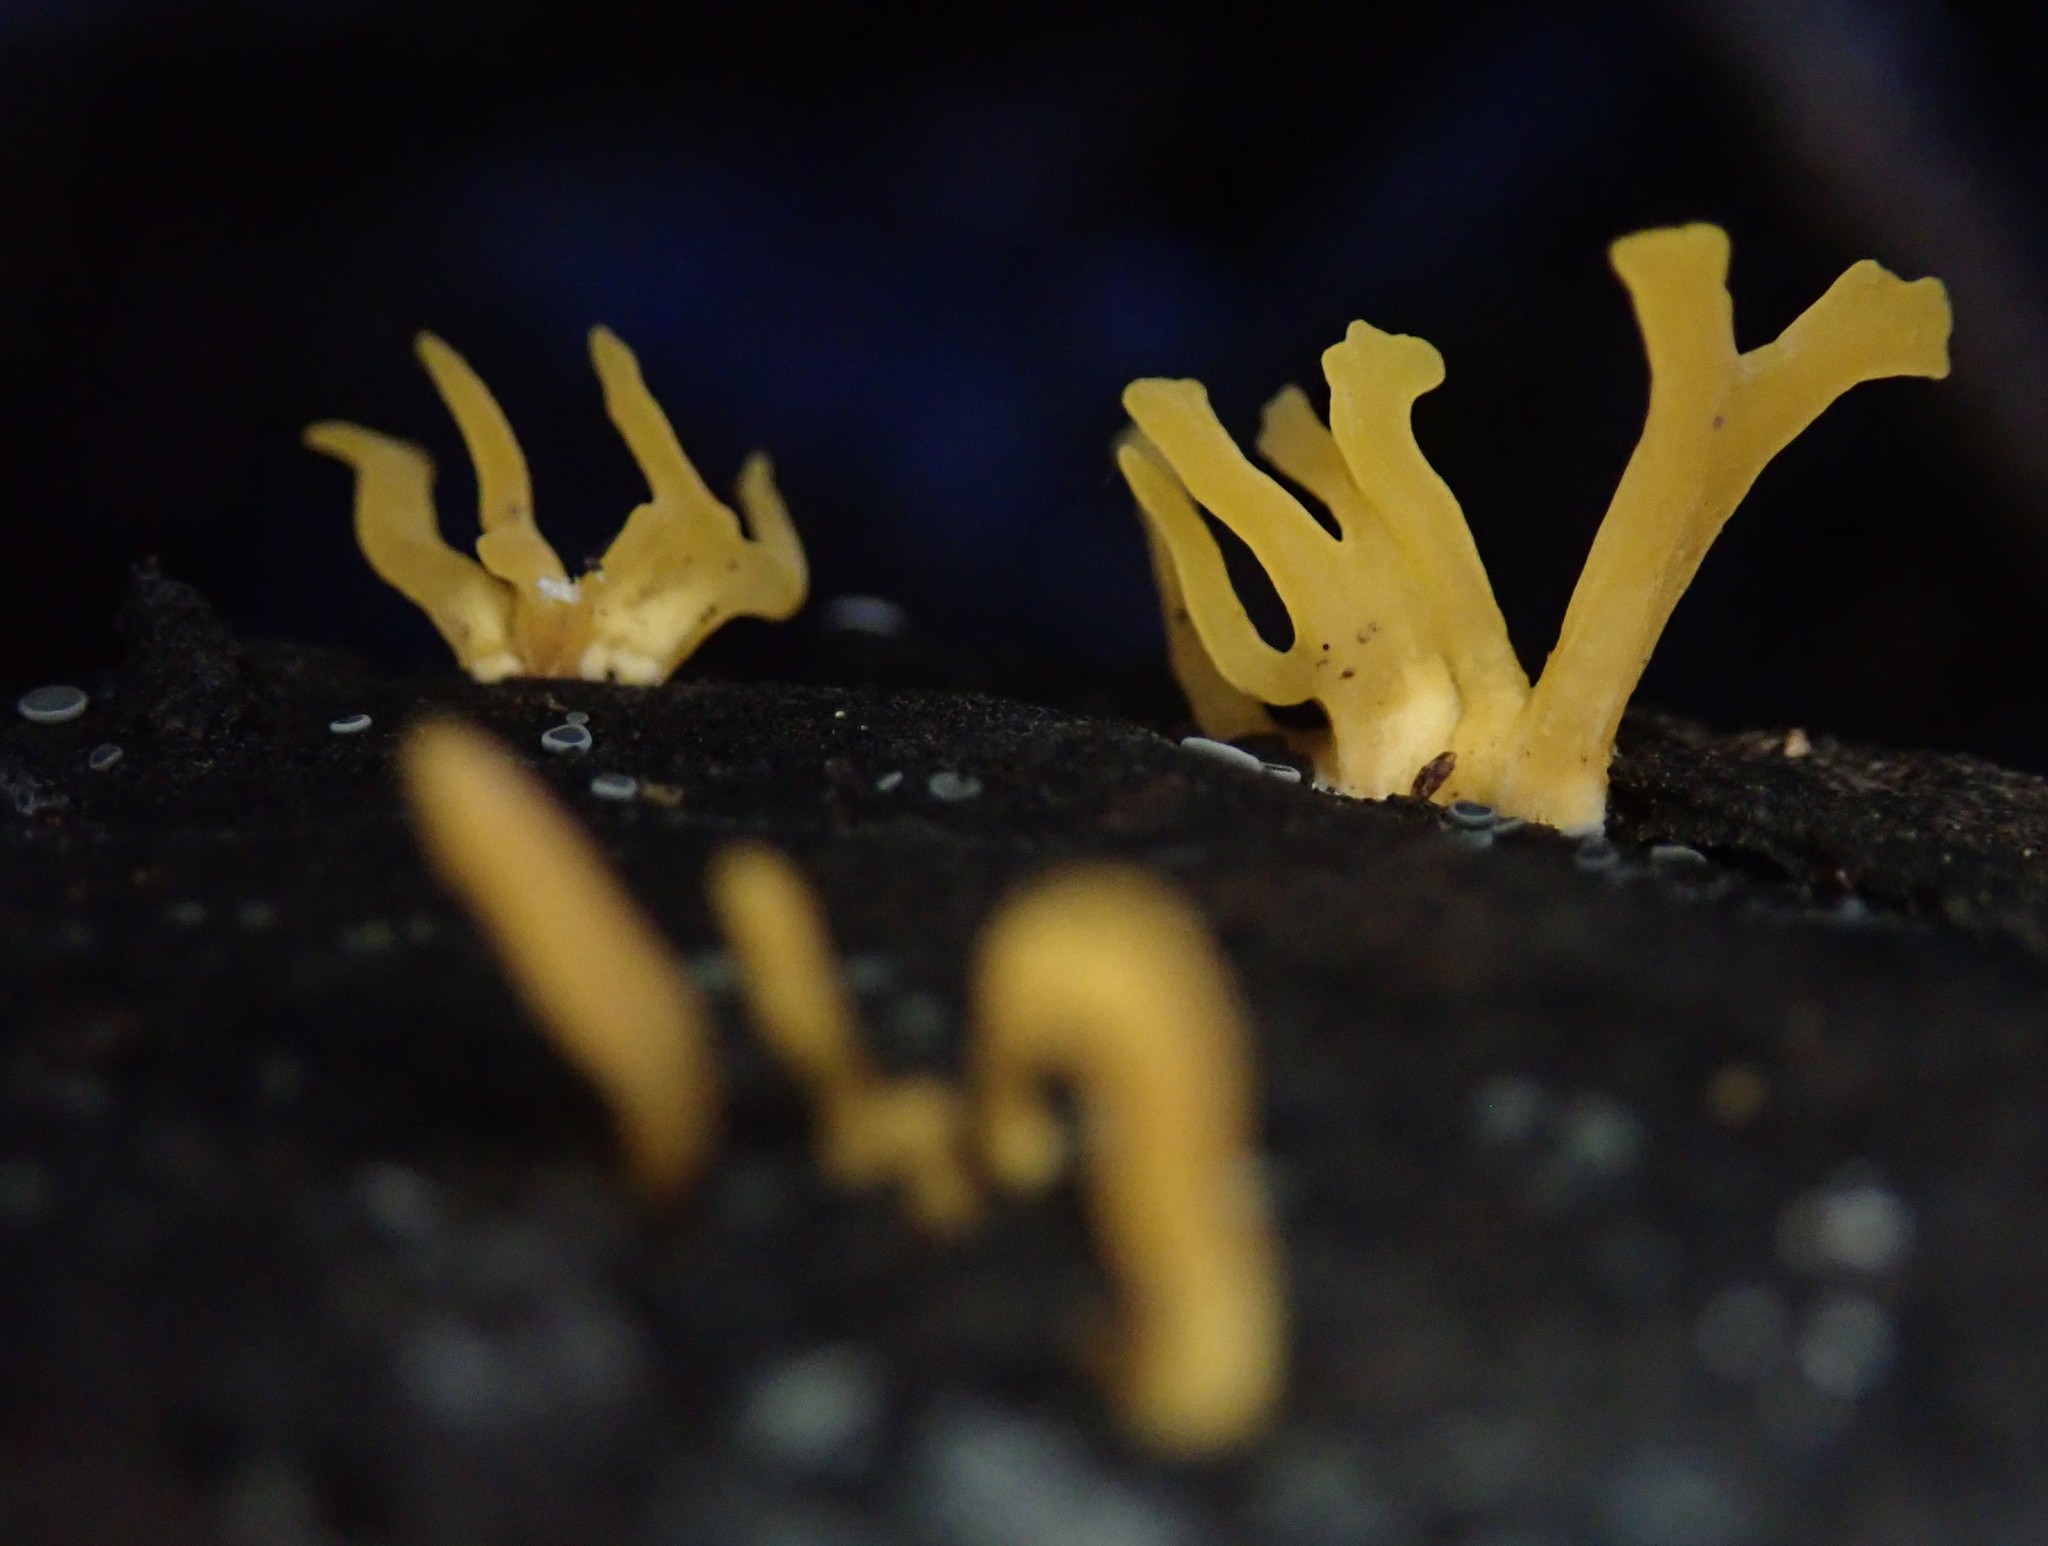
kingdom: Fungi
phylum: Basidiomycota
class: Dacrymycetes
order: Dacrymycetales
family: Dacrymycetaceae
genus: Calocera
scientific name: Calocera cornea
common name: Small stagshorn
